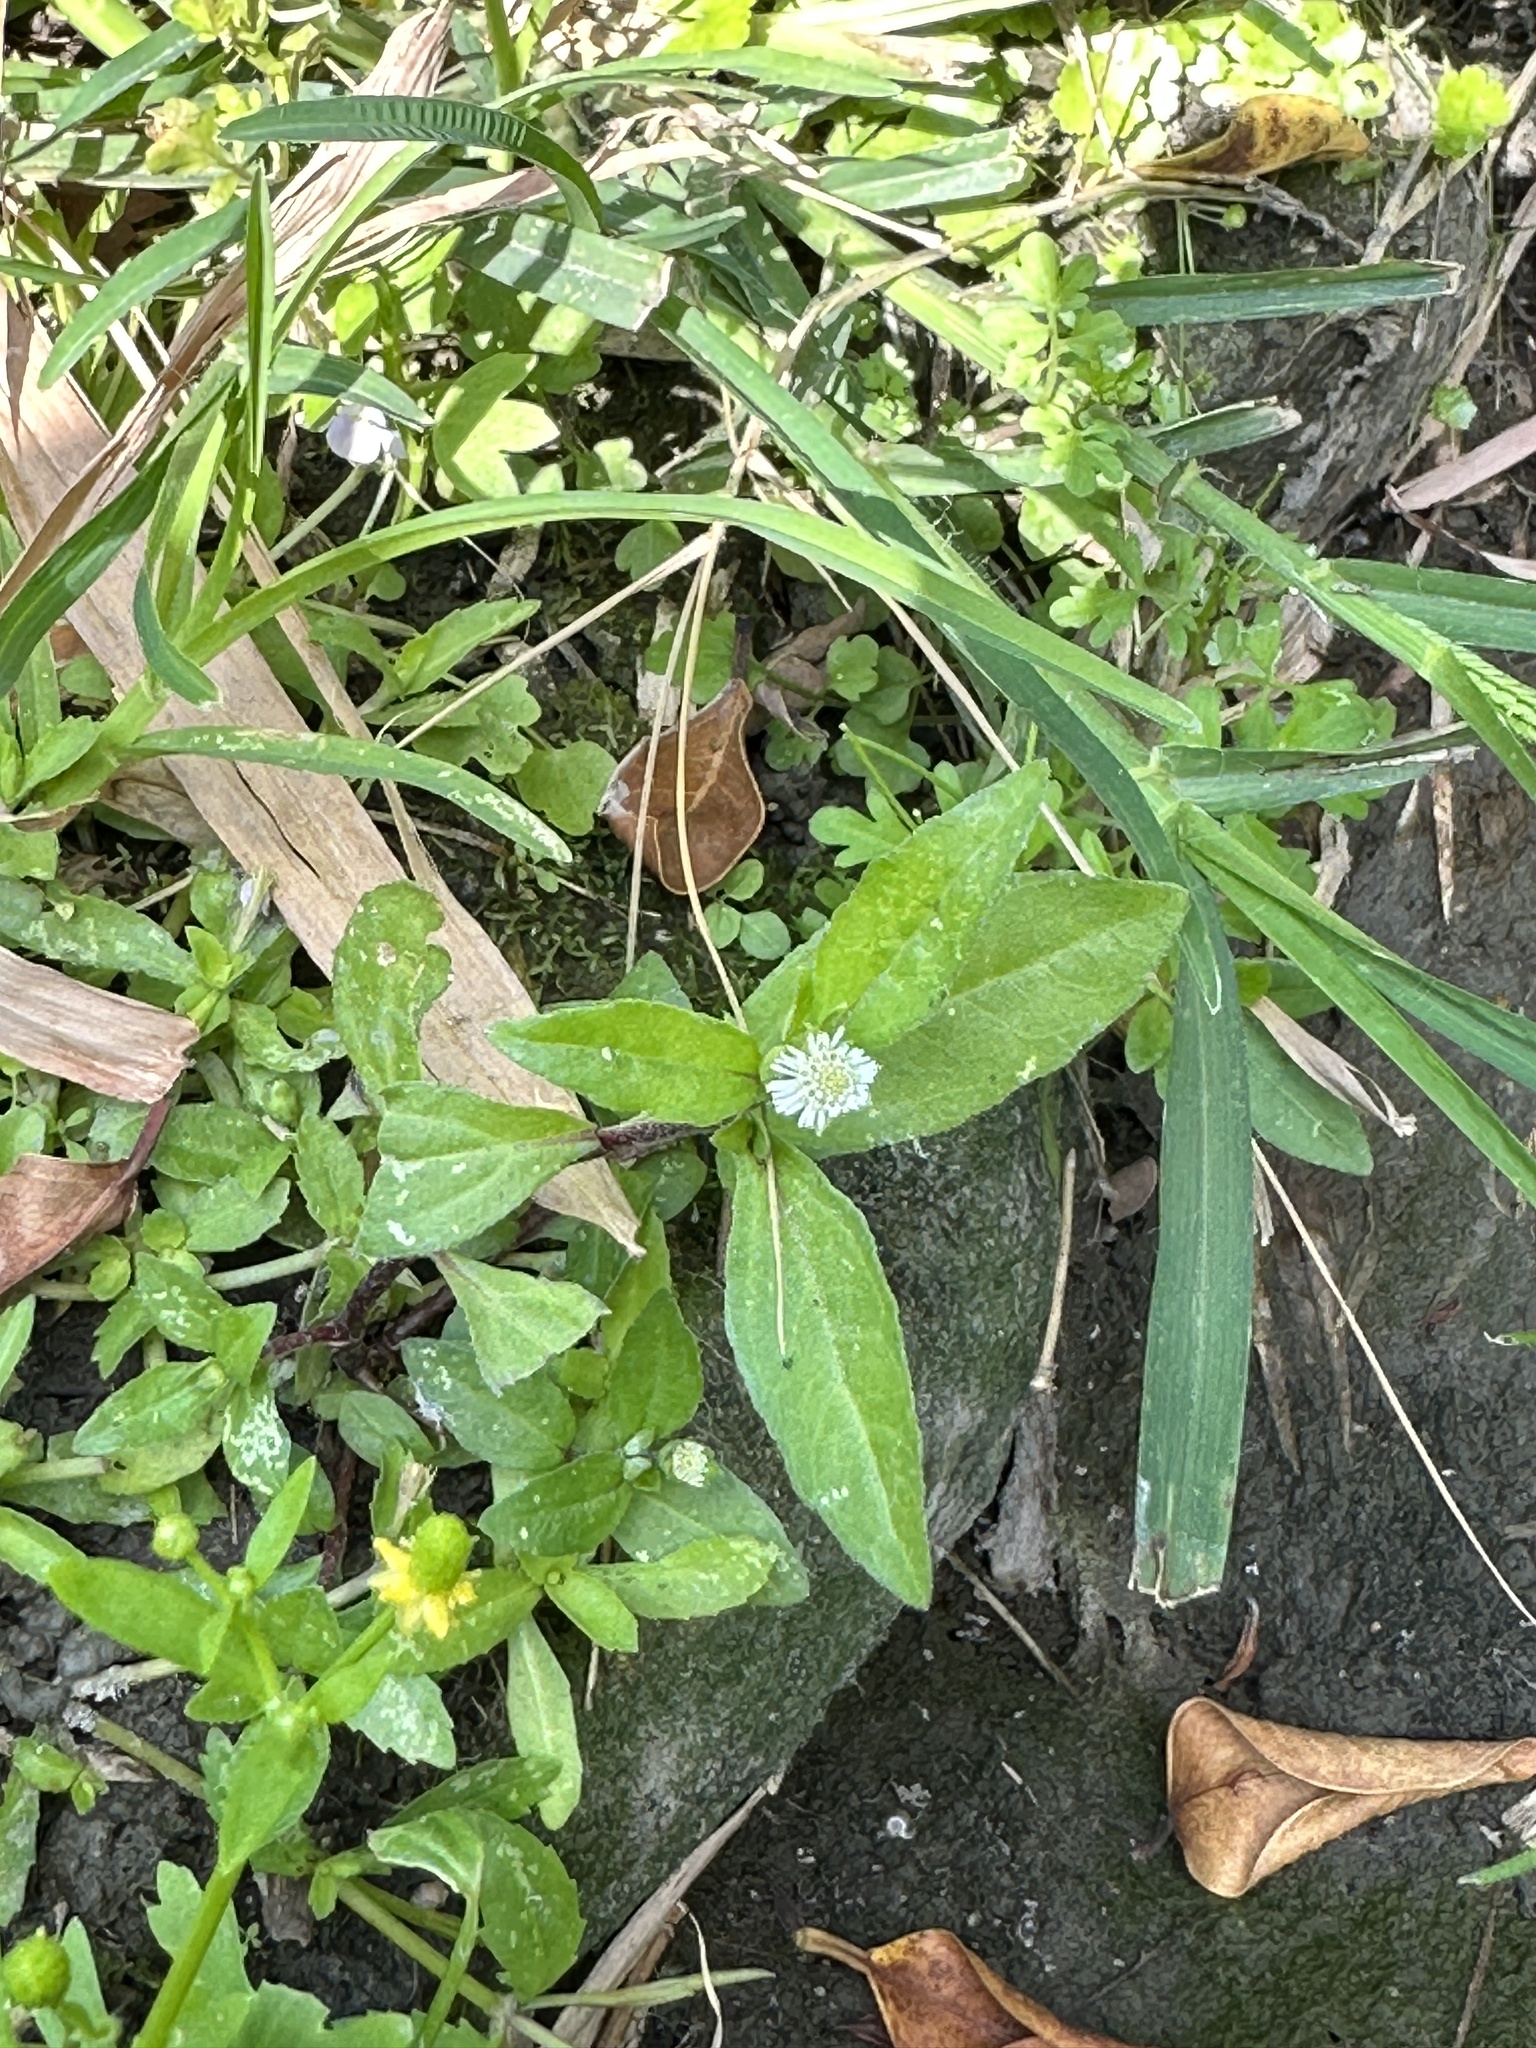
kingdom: Plantae
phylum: Tracheophyta
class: Magnoliopsida
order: Asterales
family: Asteraceae
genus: Eclipta
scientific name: Eclipta prostrata
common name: False daisy
